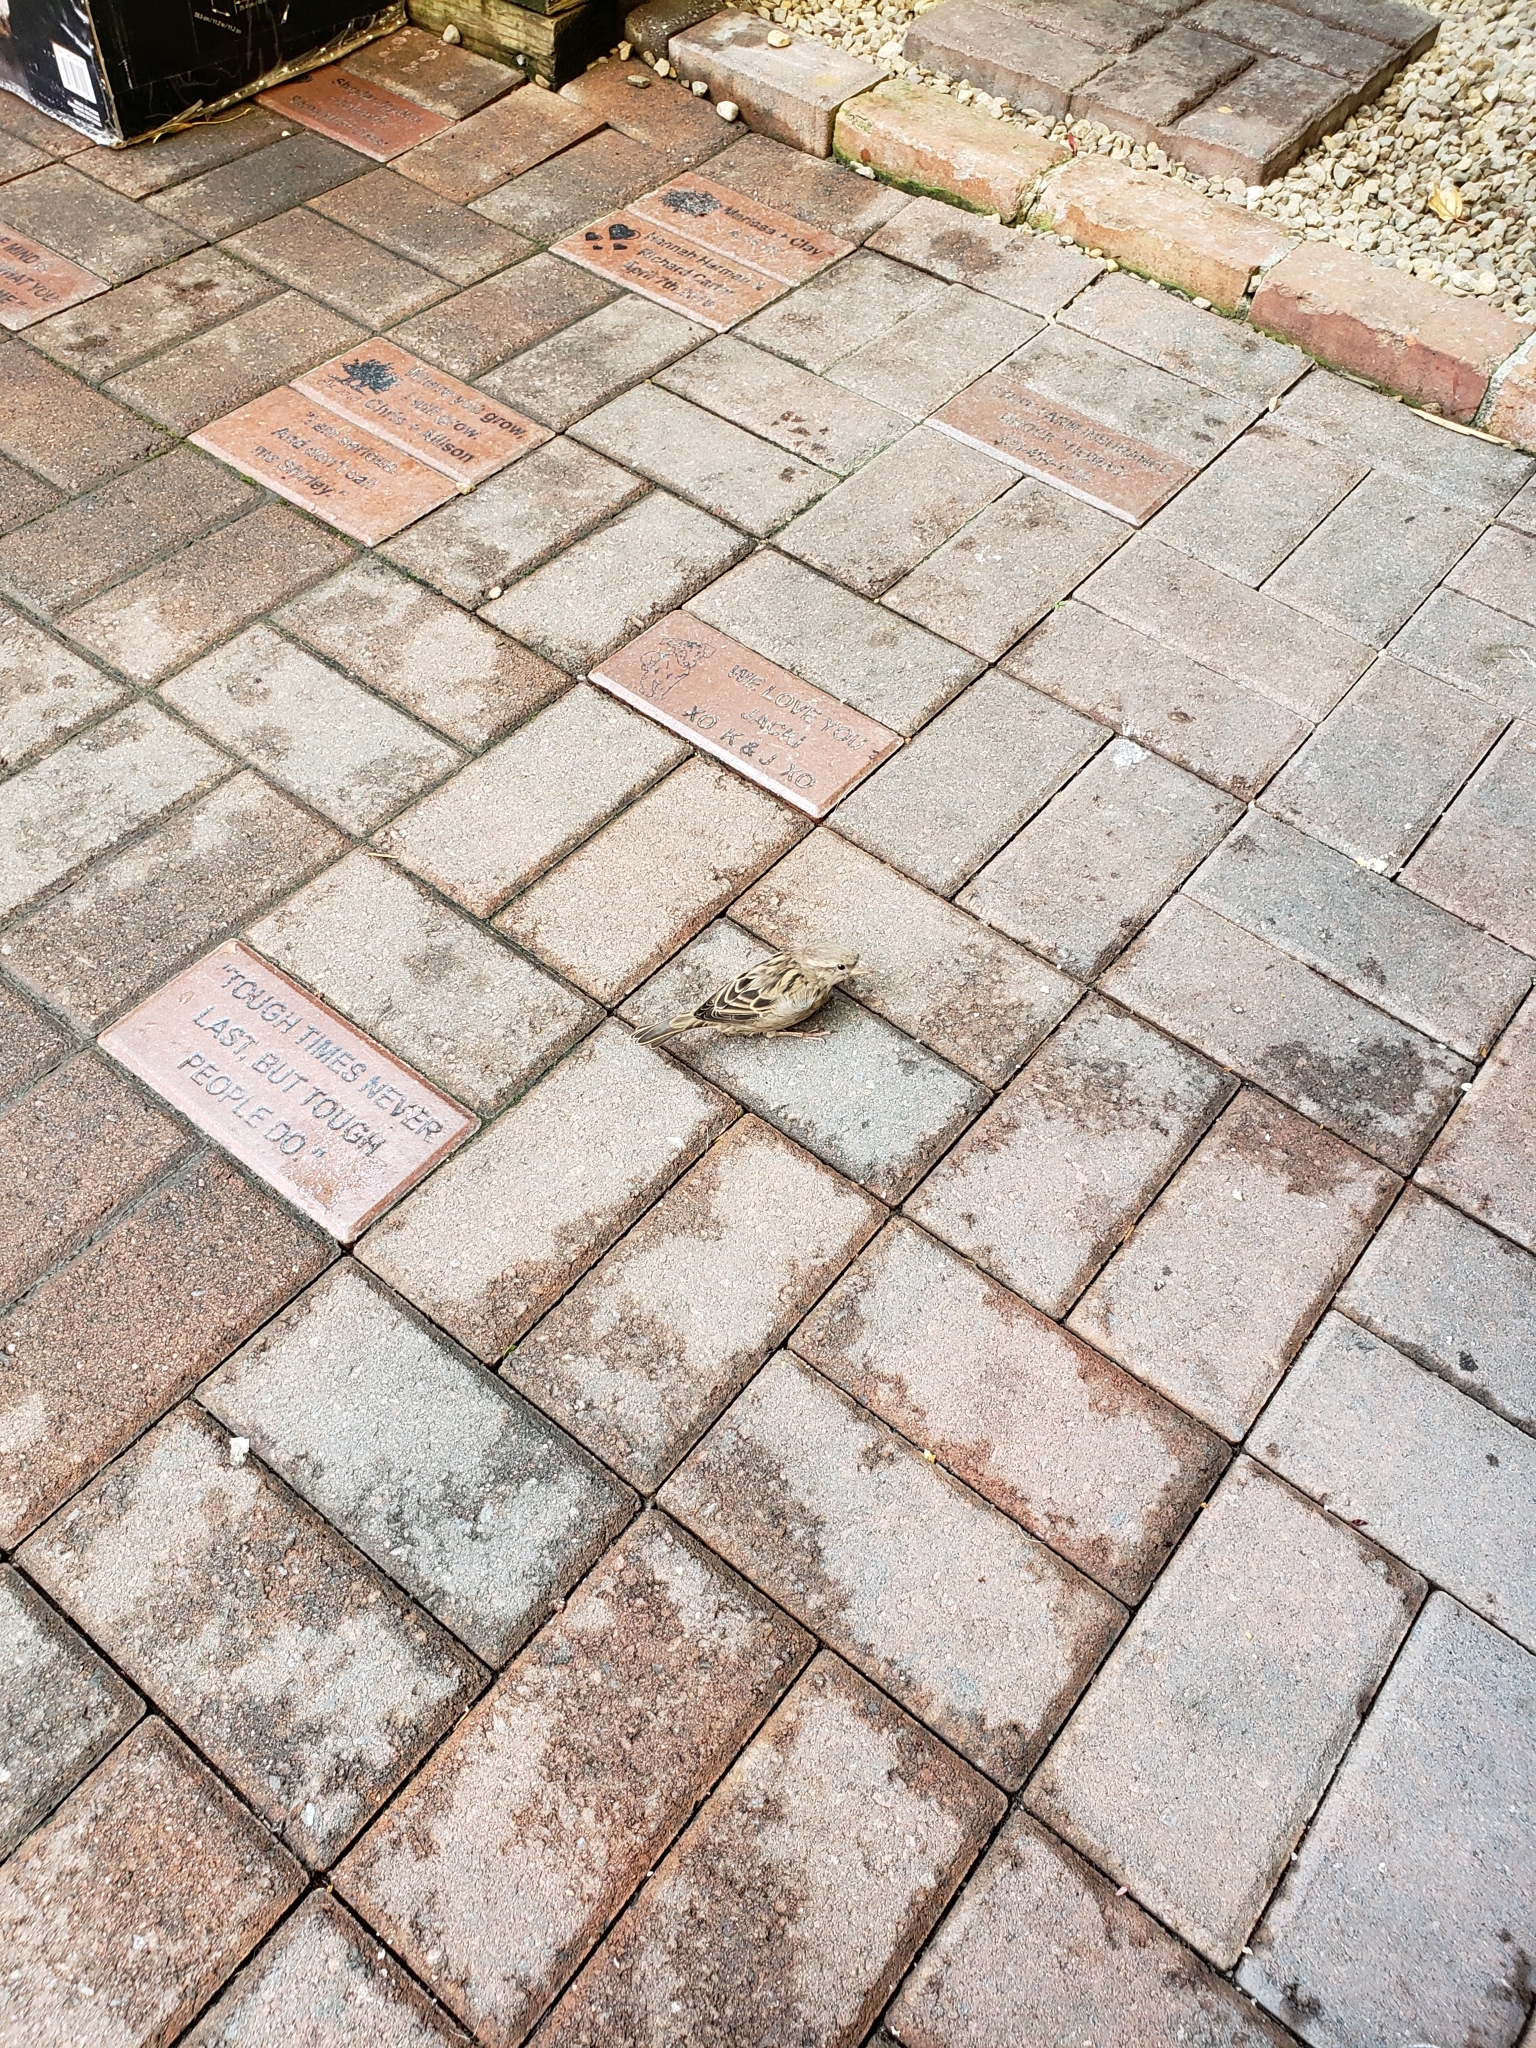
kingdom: Animalia
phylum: Chordata
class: Aves
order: Passeriformes
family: Passeridae
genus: Passer
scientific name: Passer domesticus
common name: House sparrow
